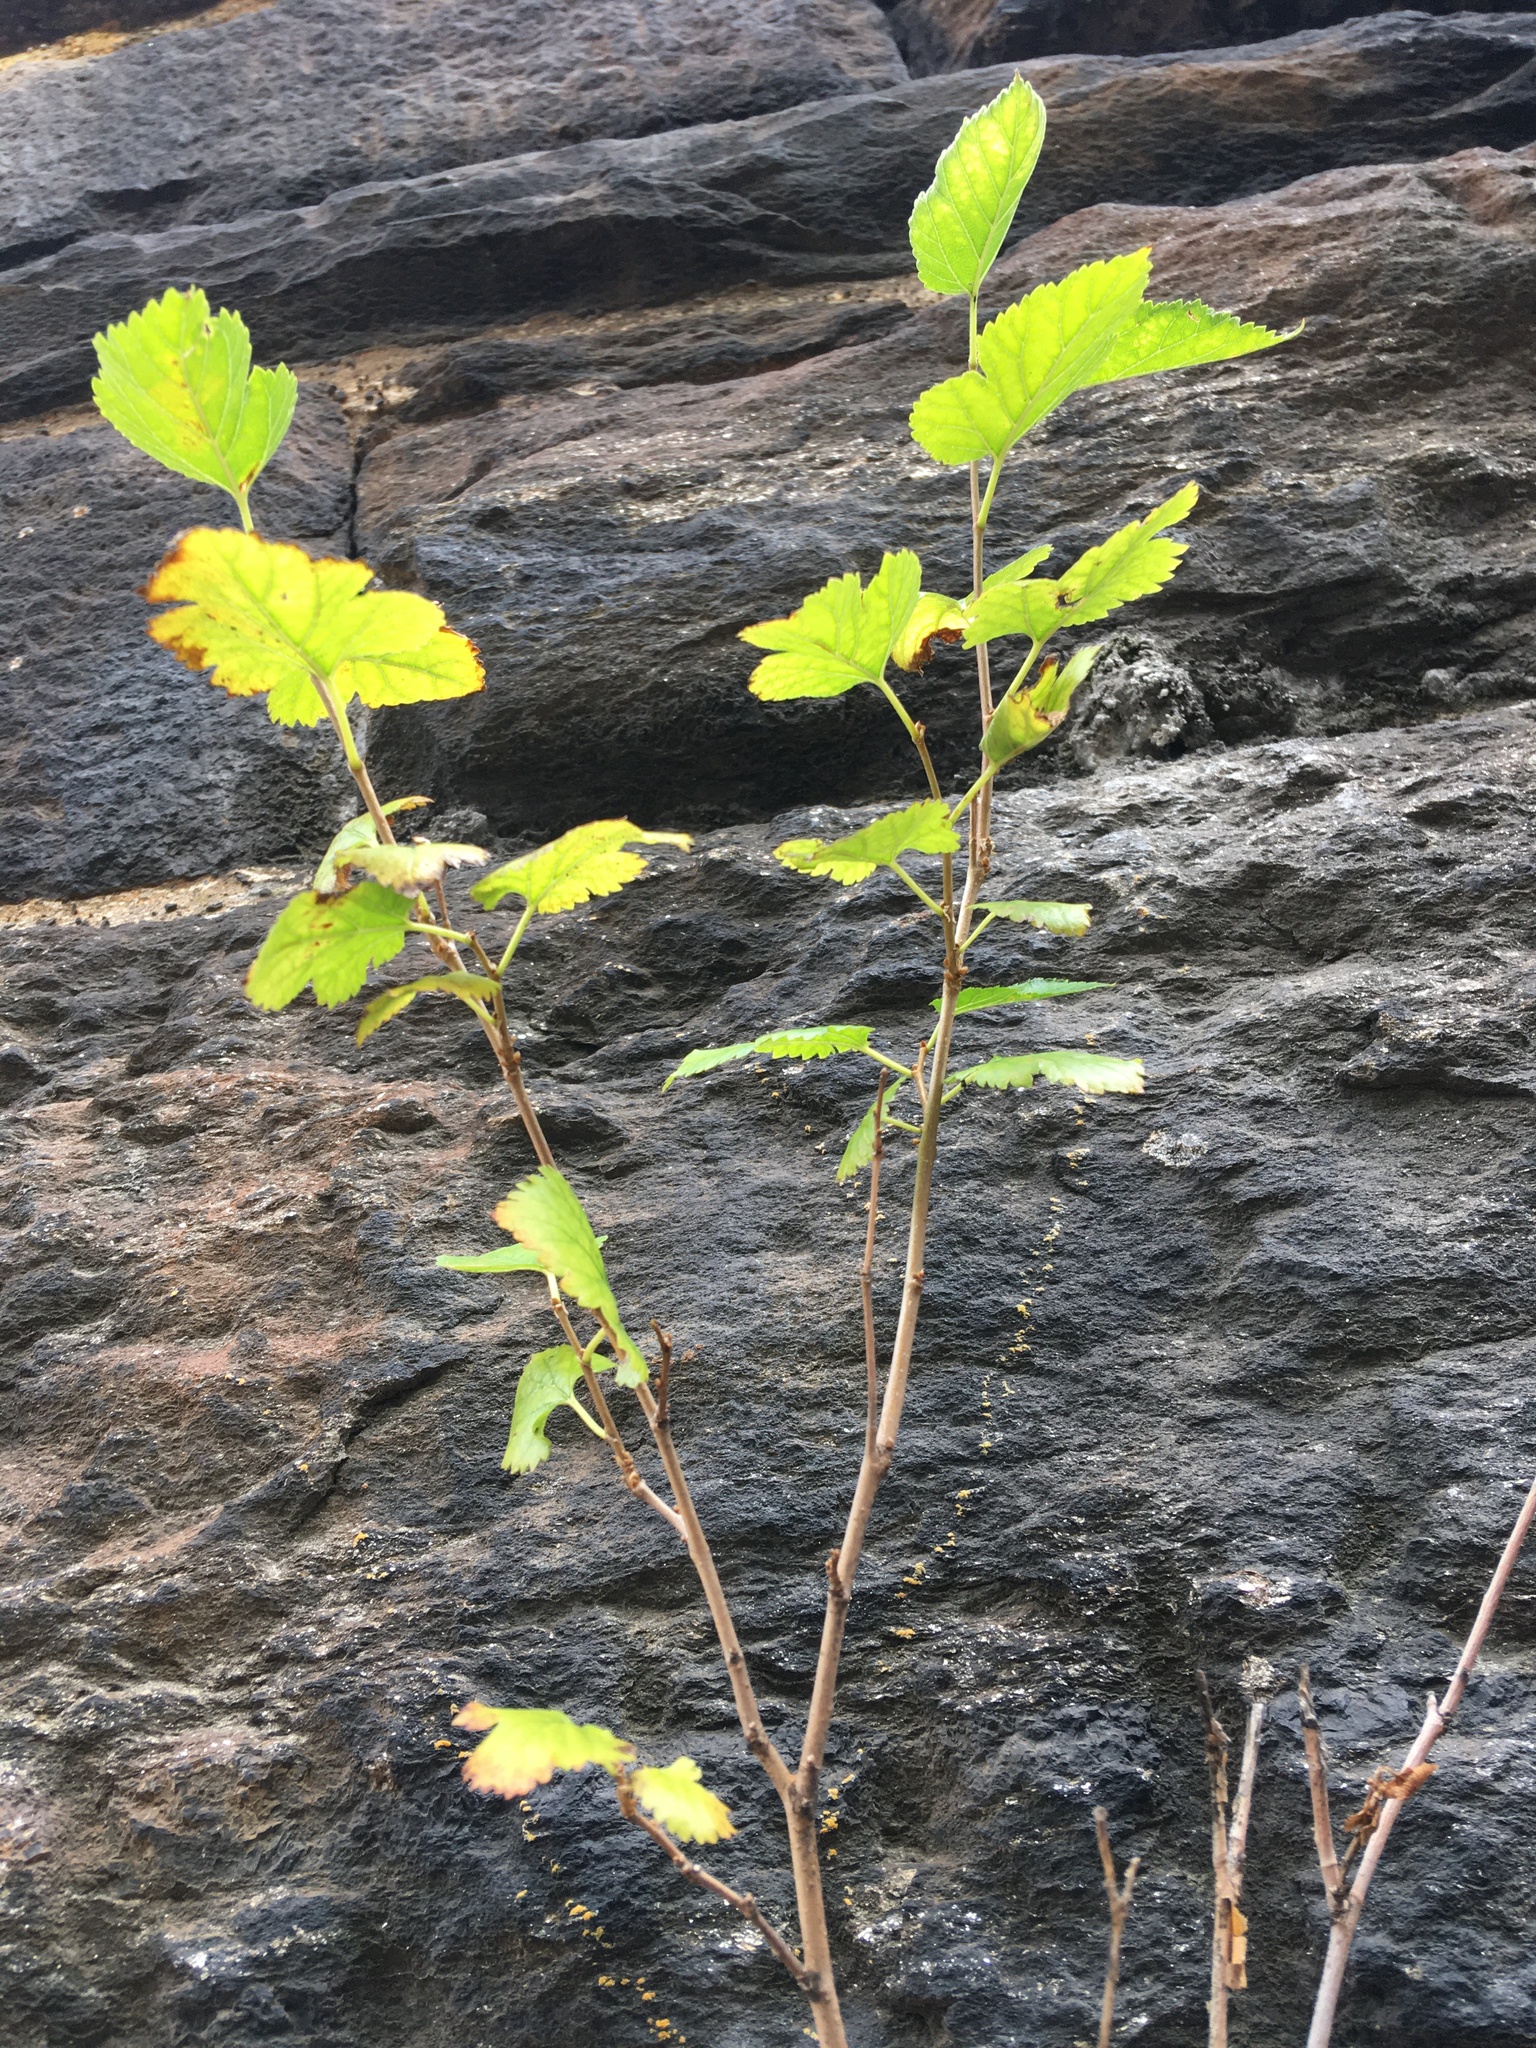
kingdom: Plantae
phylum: Tracheophyta
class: Magnoliopsida
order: Rosales
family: Moraceae
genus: Morus
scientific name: Morus alba
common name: White mulberry
